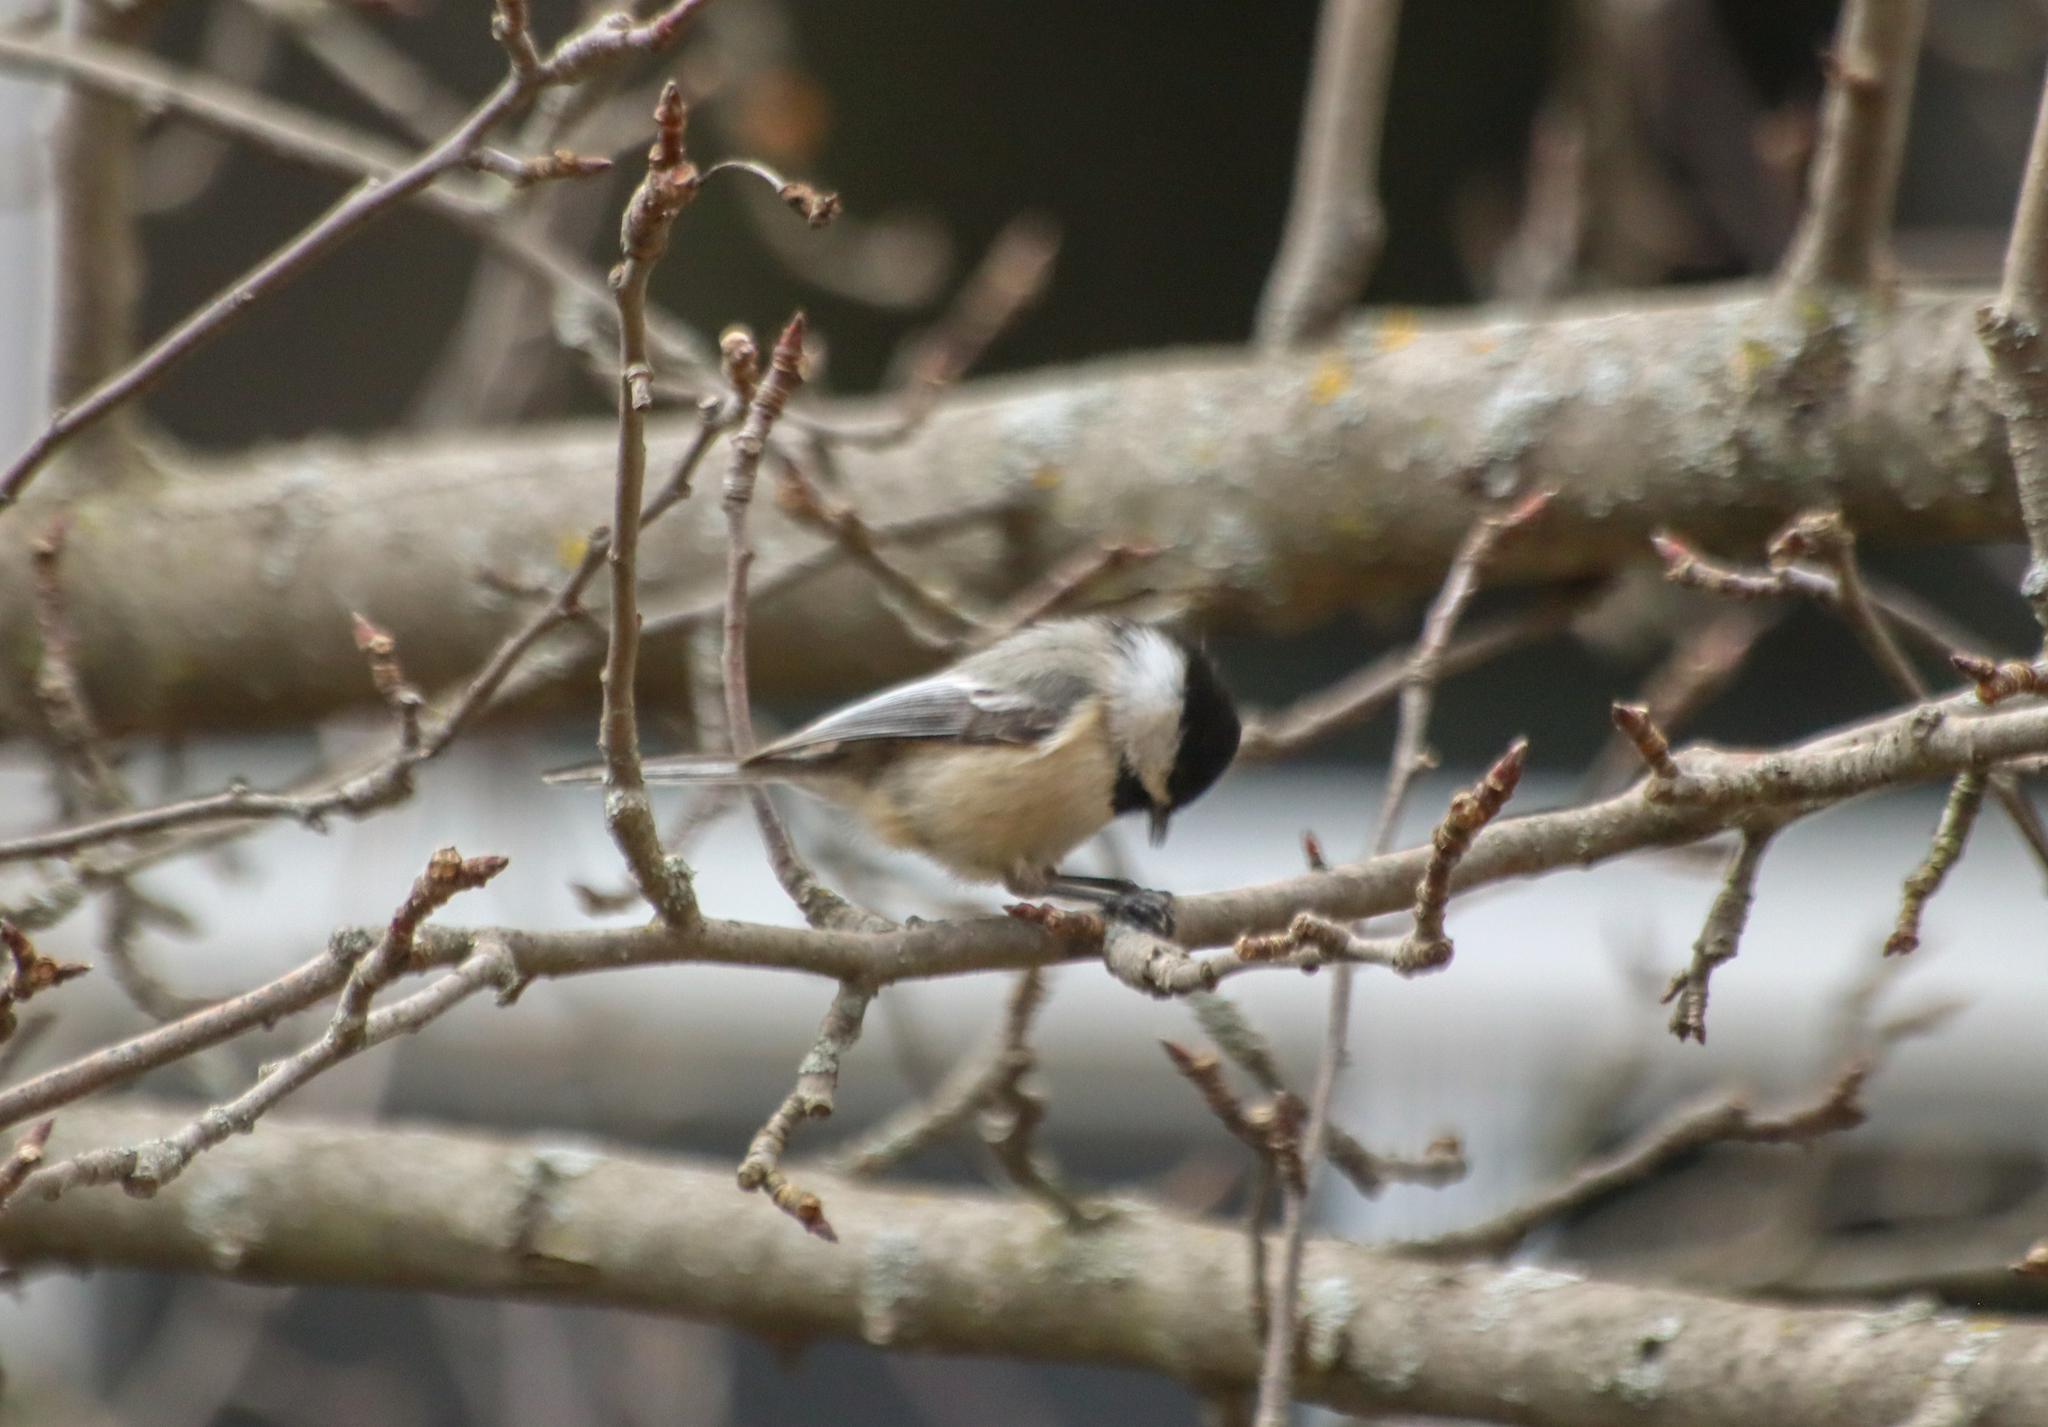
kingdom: Animalia
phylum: Chordata
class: Aves
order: Passeriformes
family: Paridae
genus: Poecile
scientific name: Poecile atricapillus
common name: Black-capped chickadee
